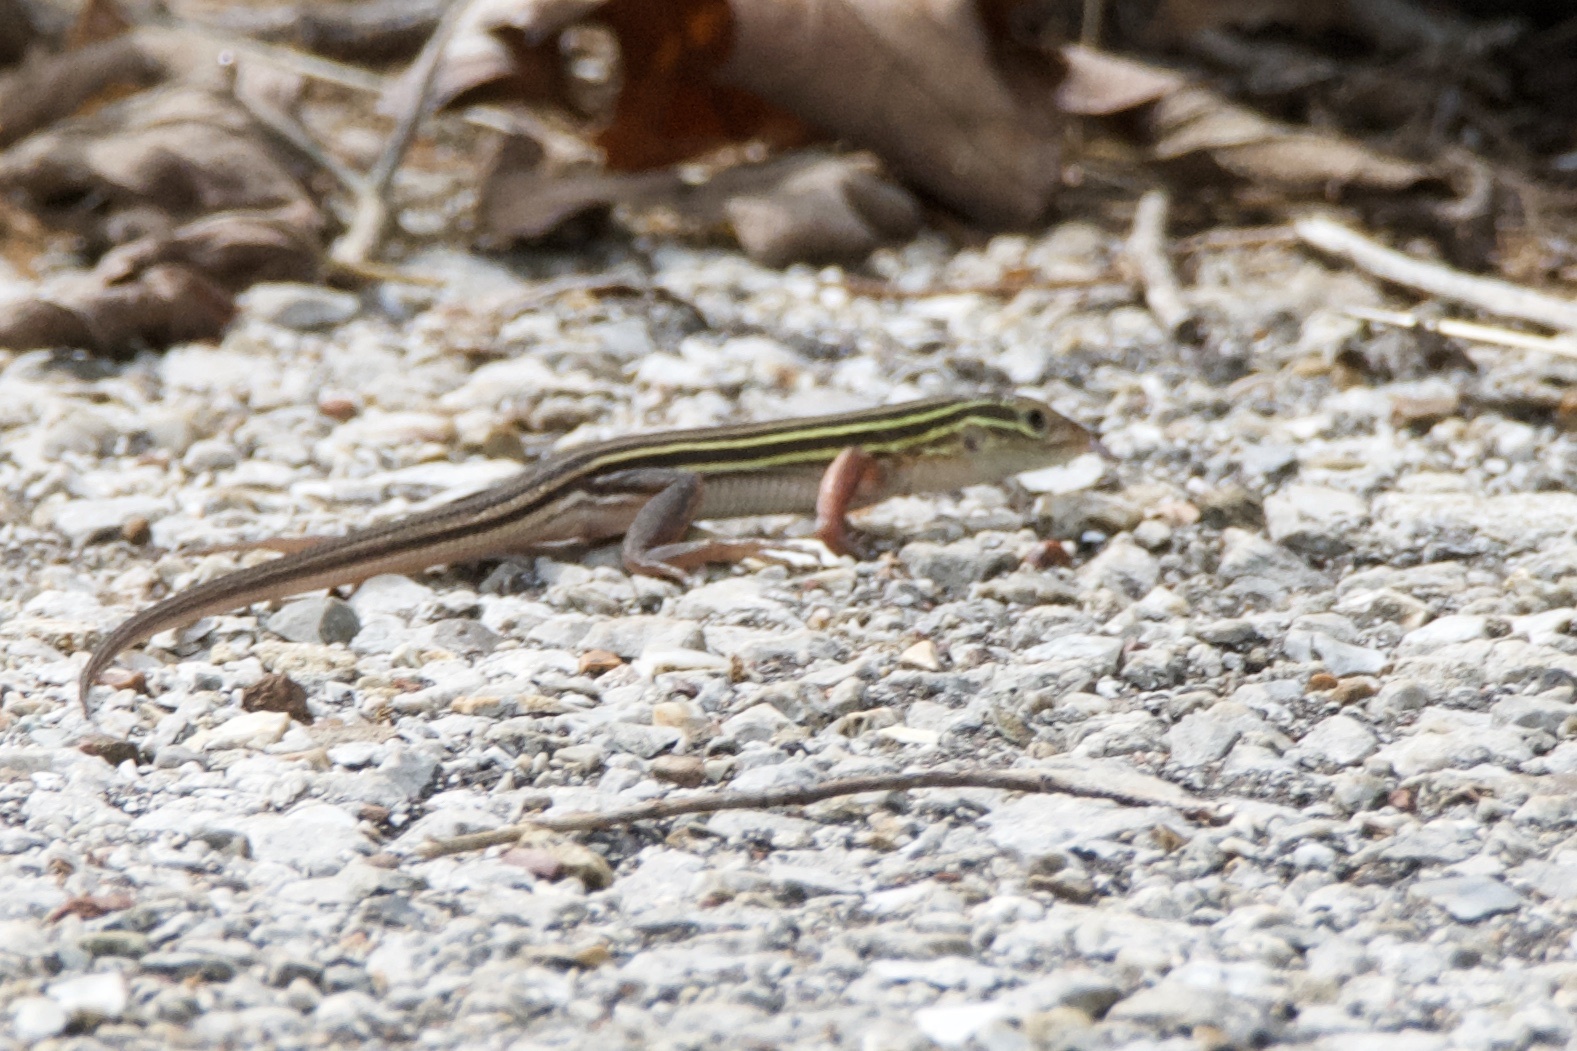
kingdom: Animalia
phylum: Chordata
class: Squamata
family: Teiidae
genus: Aspidoscelis
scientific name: Aspidoscelis sexlineatus
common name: Six-lined racerunner
